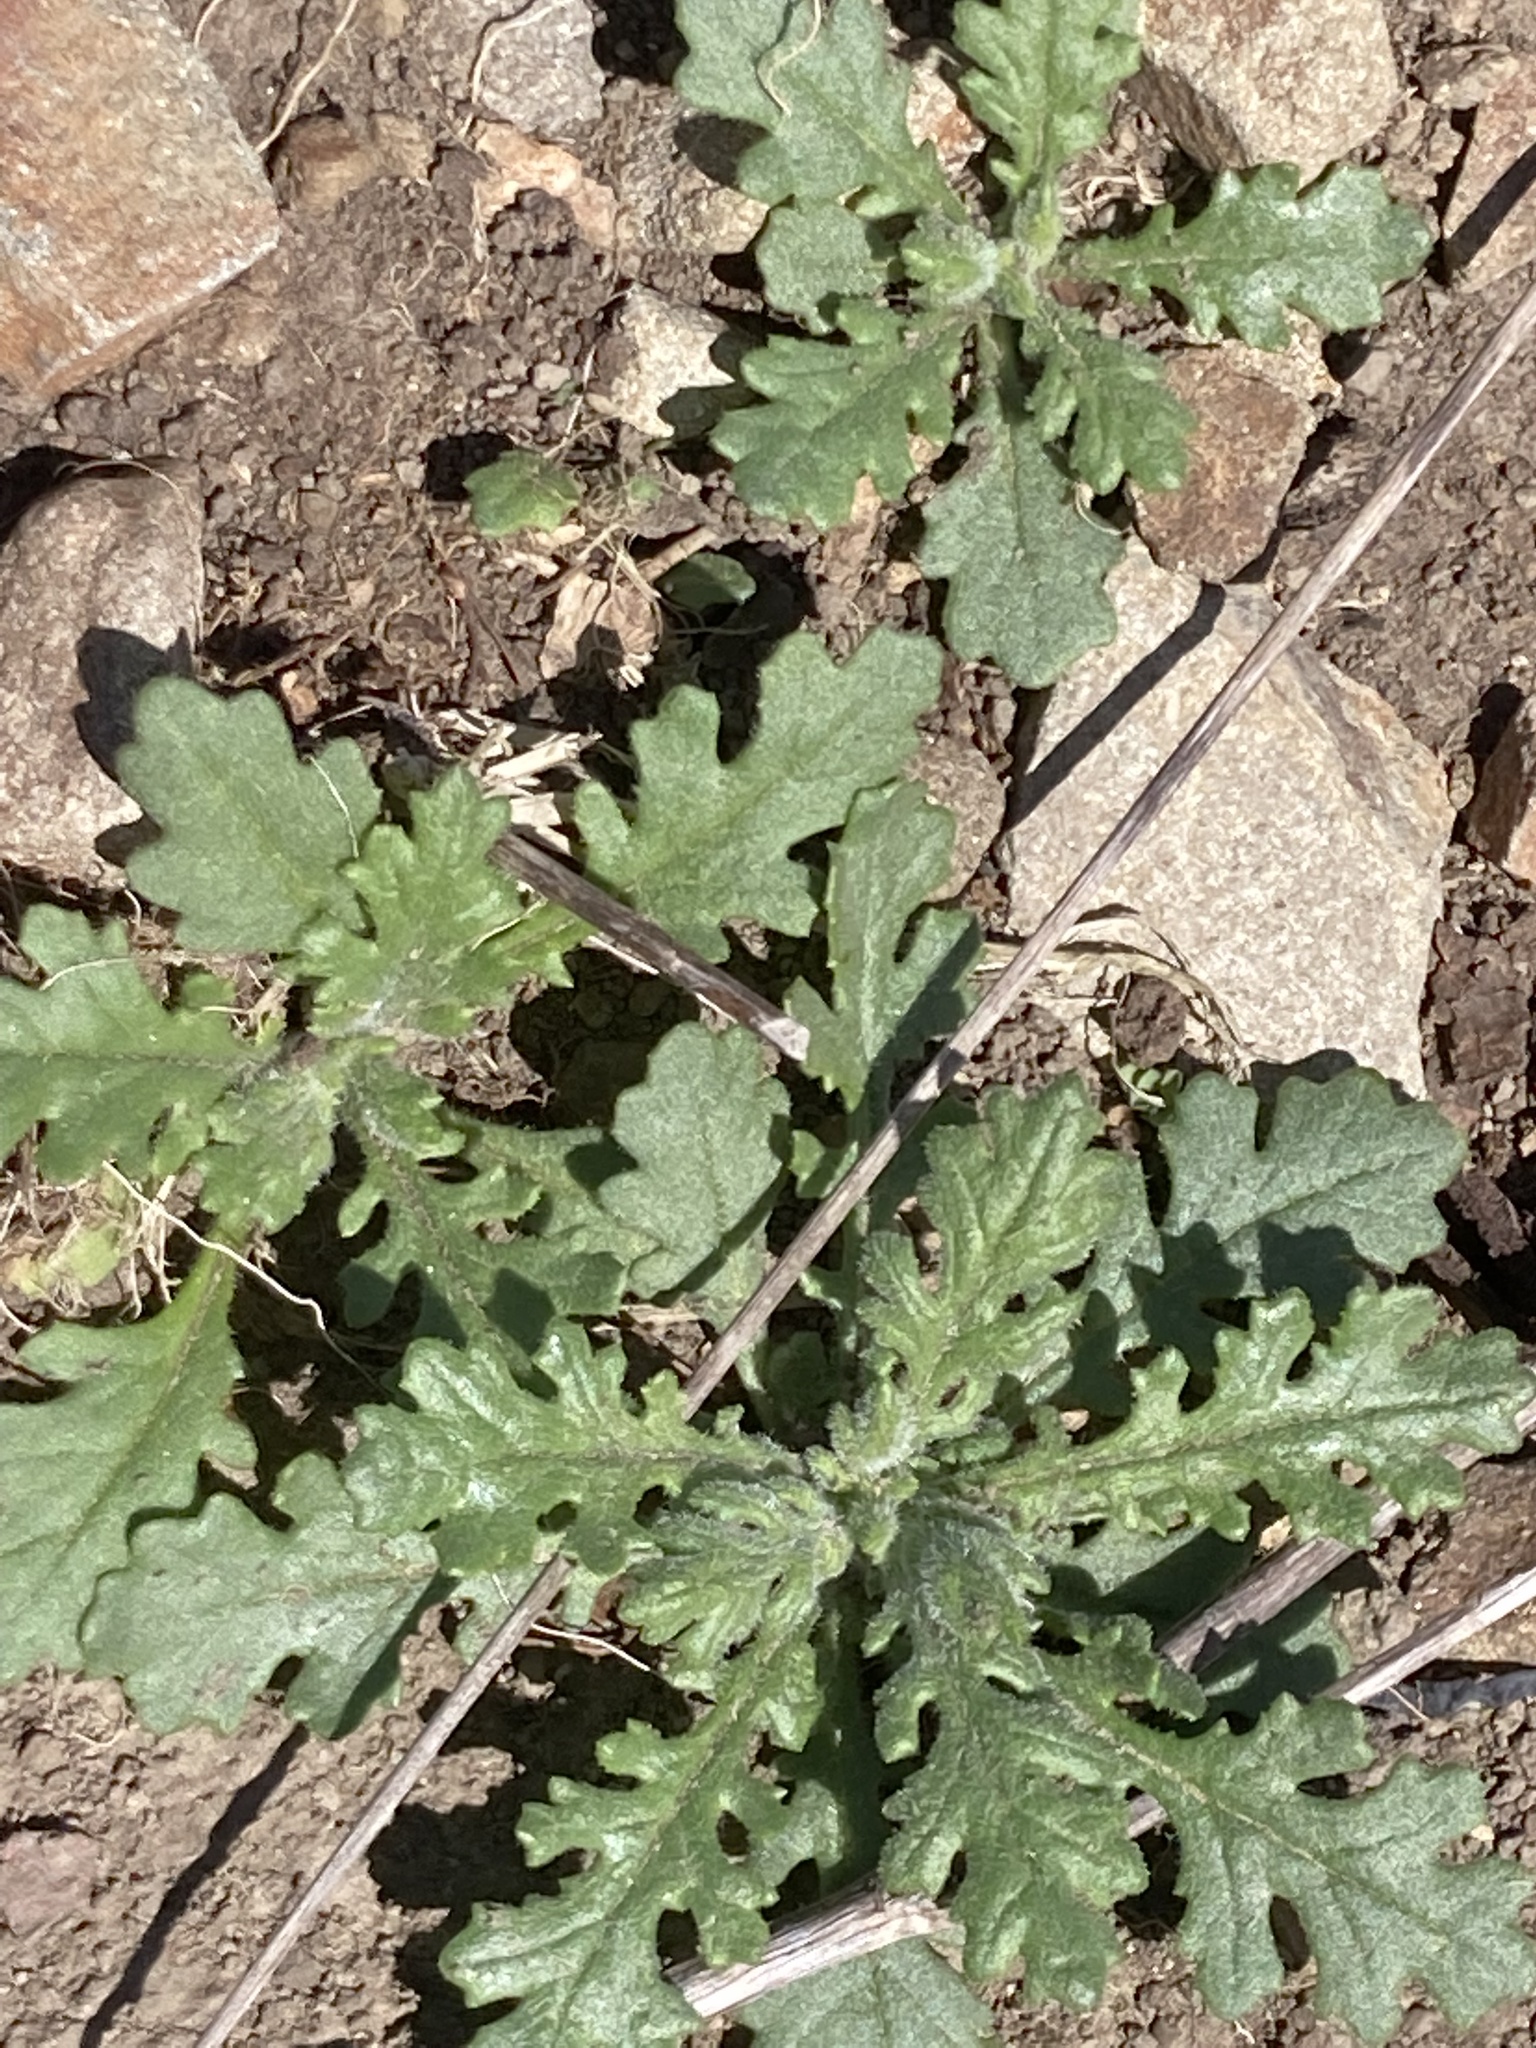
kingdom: Plantae
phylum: Tracheophyta
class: Magnoliopsida
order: Asterales
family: Asteraceae
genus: Senecio
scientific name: Senecio sylvaticus
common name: Woodland ragwort
